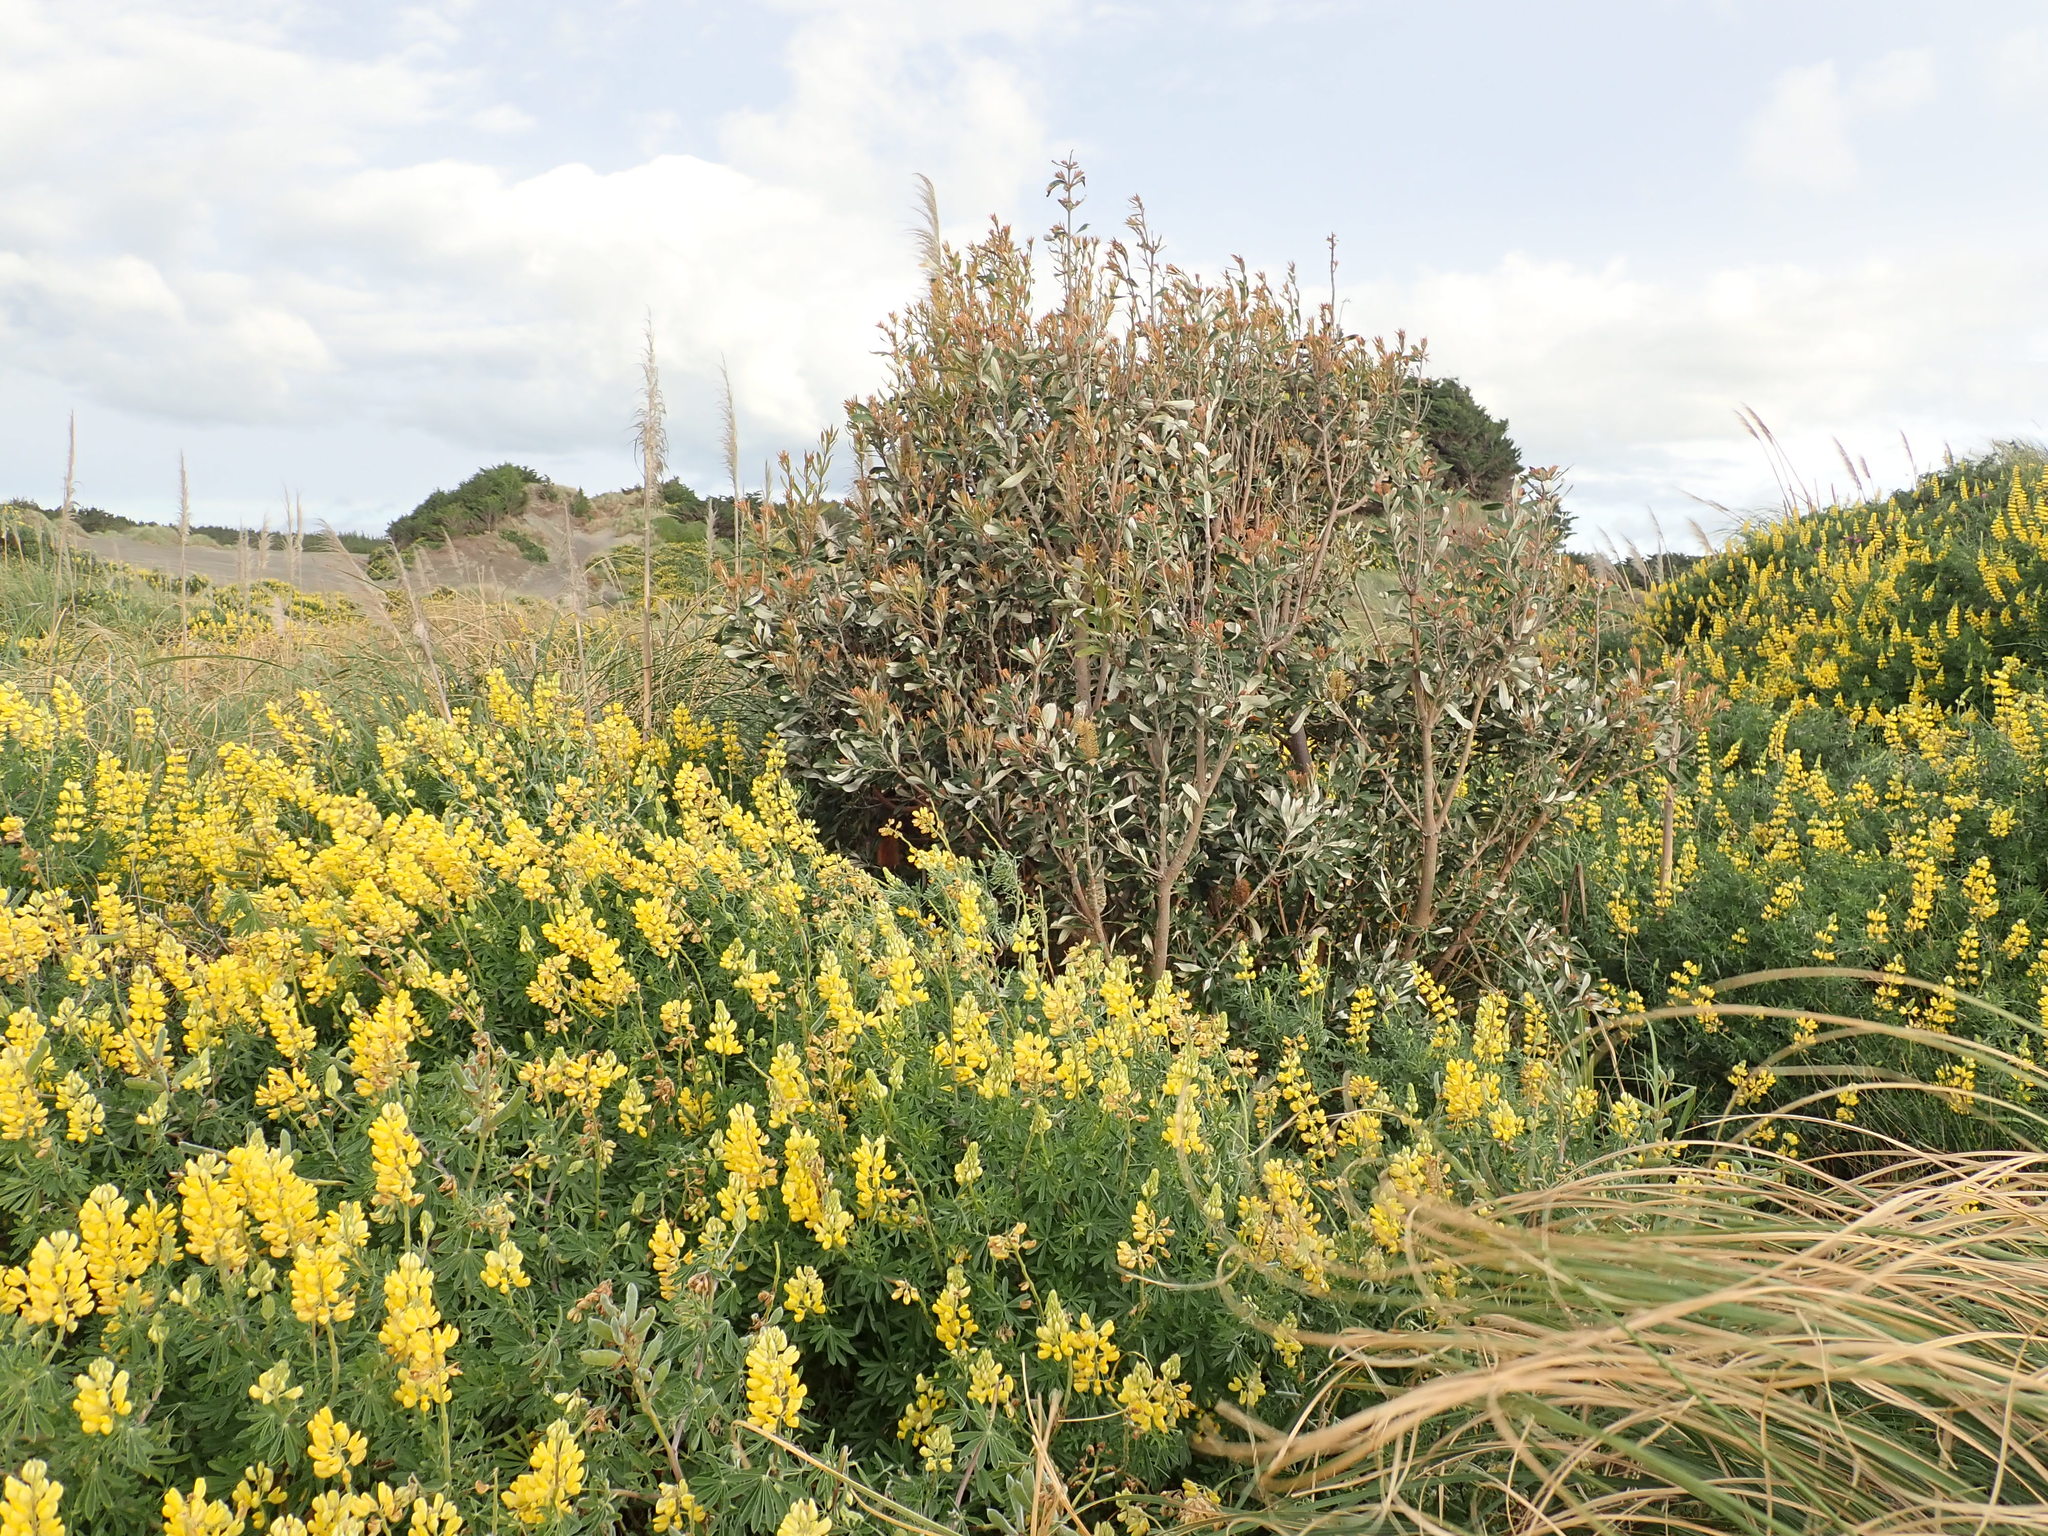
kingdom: Plantae
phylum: Tracheophyta
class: Magnoliopsida
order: Proteales
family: Proteaceae
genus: Banksia
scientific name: Banksia integrifolia
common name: White-honeysuckle
